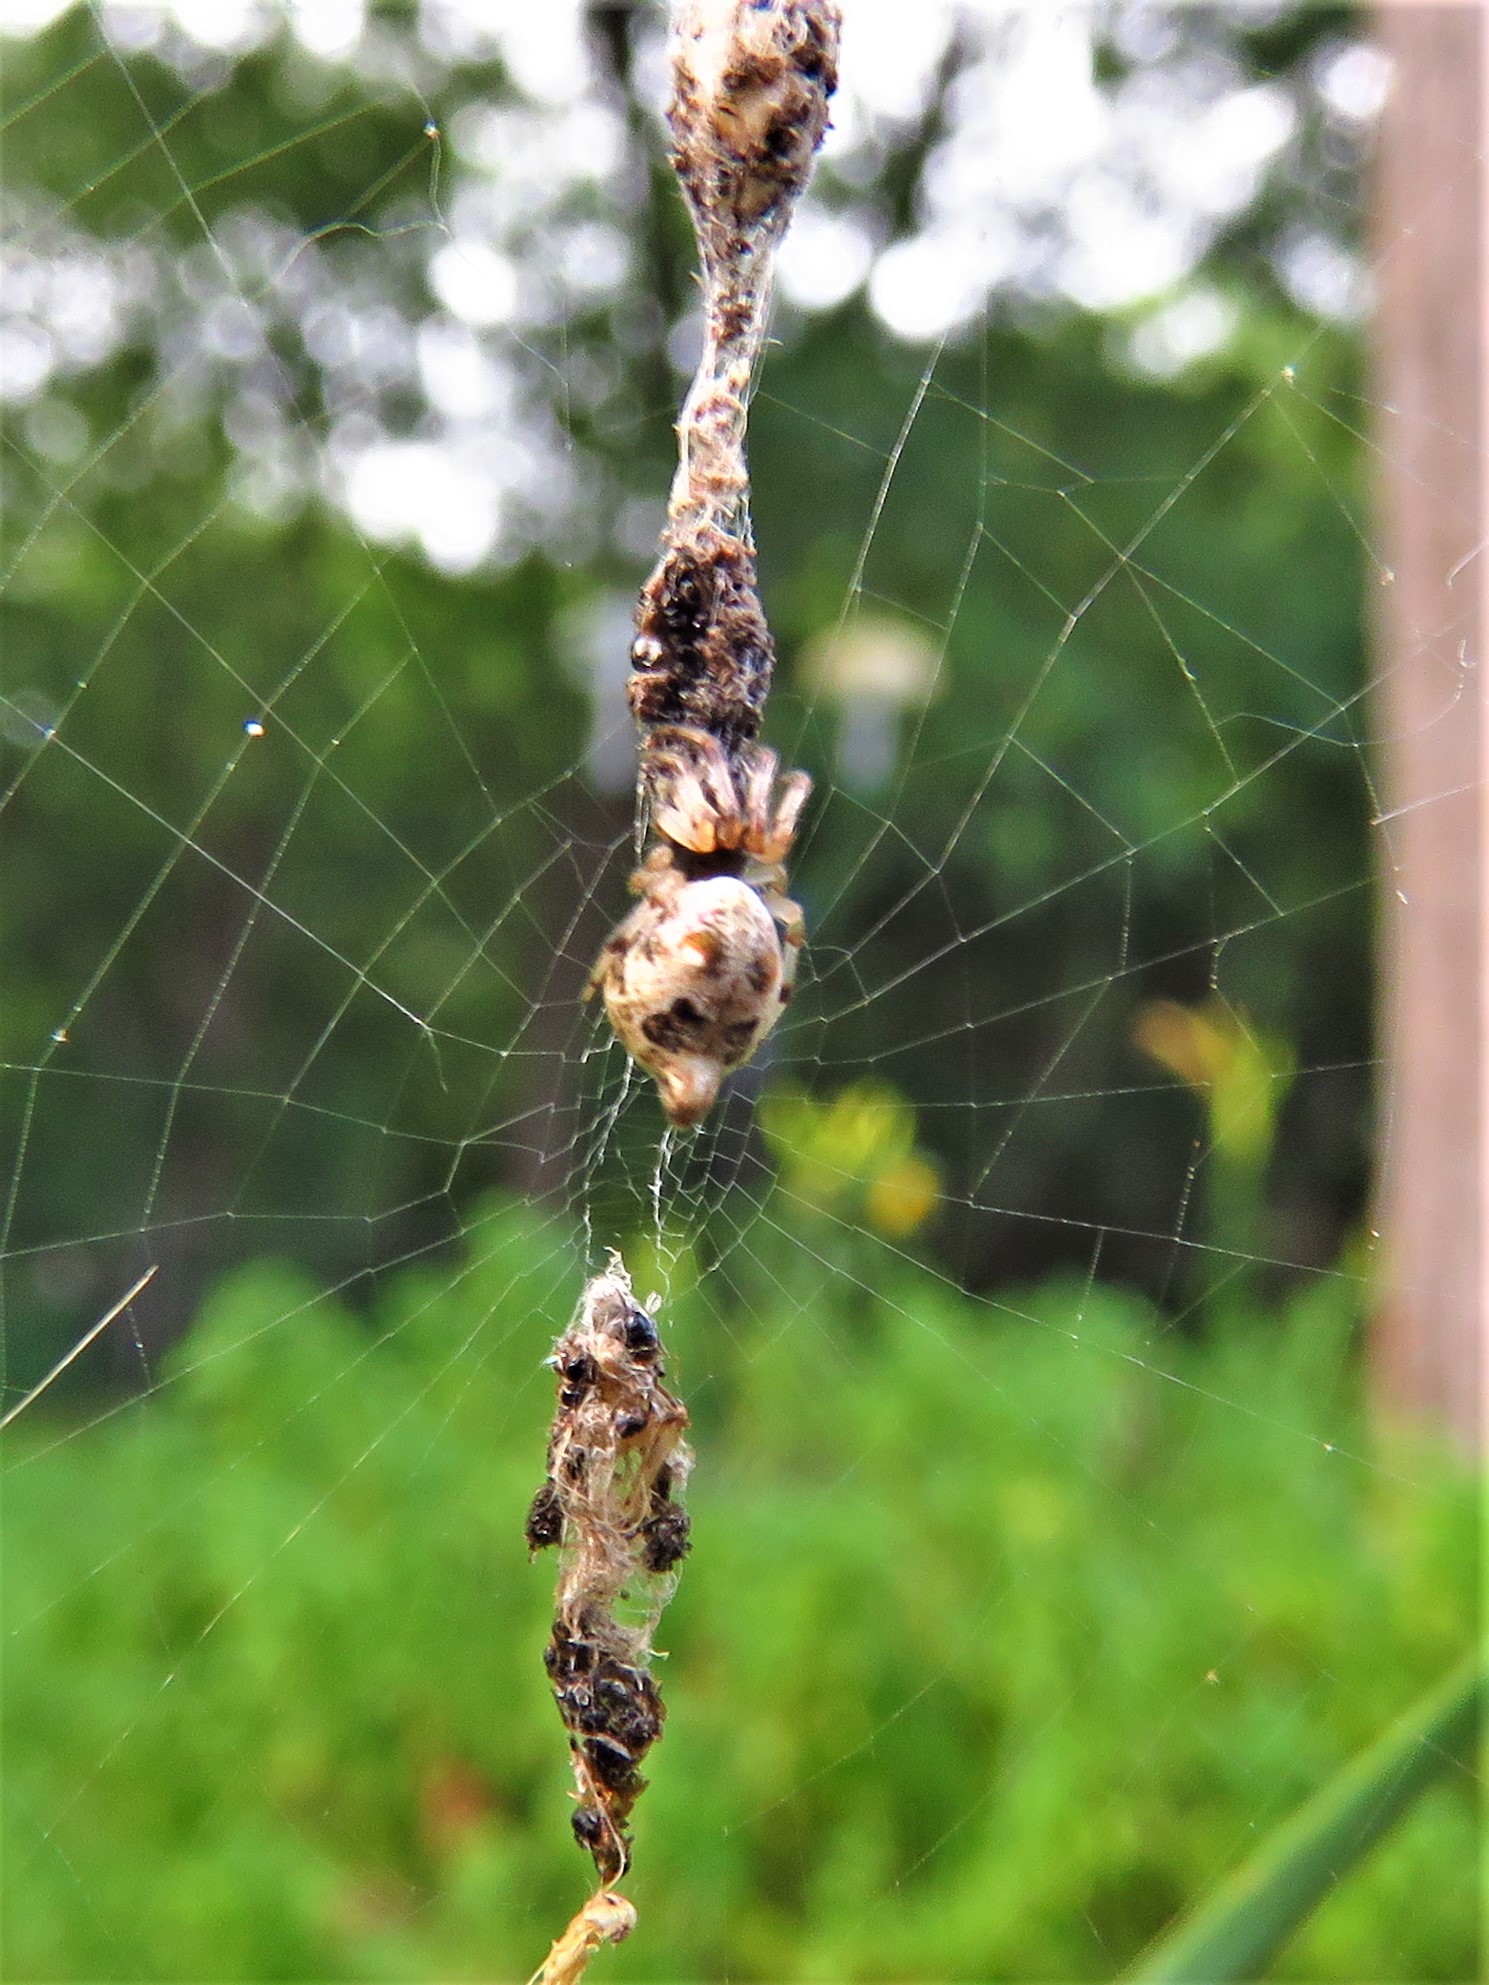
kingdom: Animalia
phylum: Arthropoda
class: Arachnida
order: Araneae
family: Araneidae
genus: Cyclosa
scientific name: Cyclosa turbinata
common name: Orb weavers
